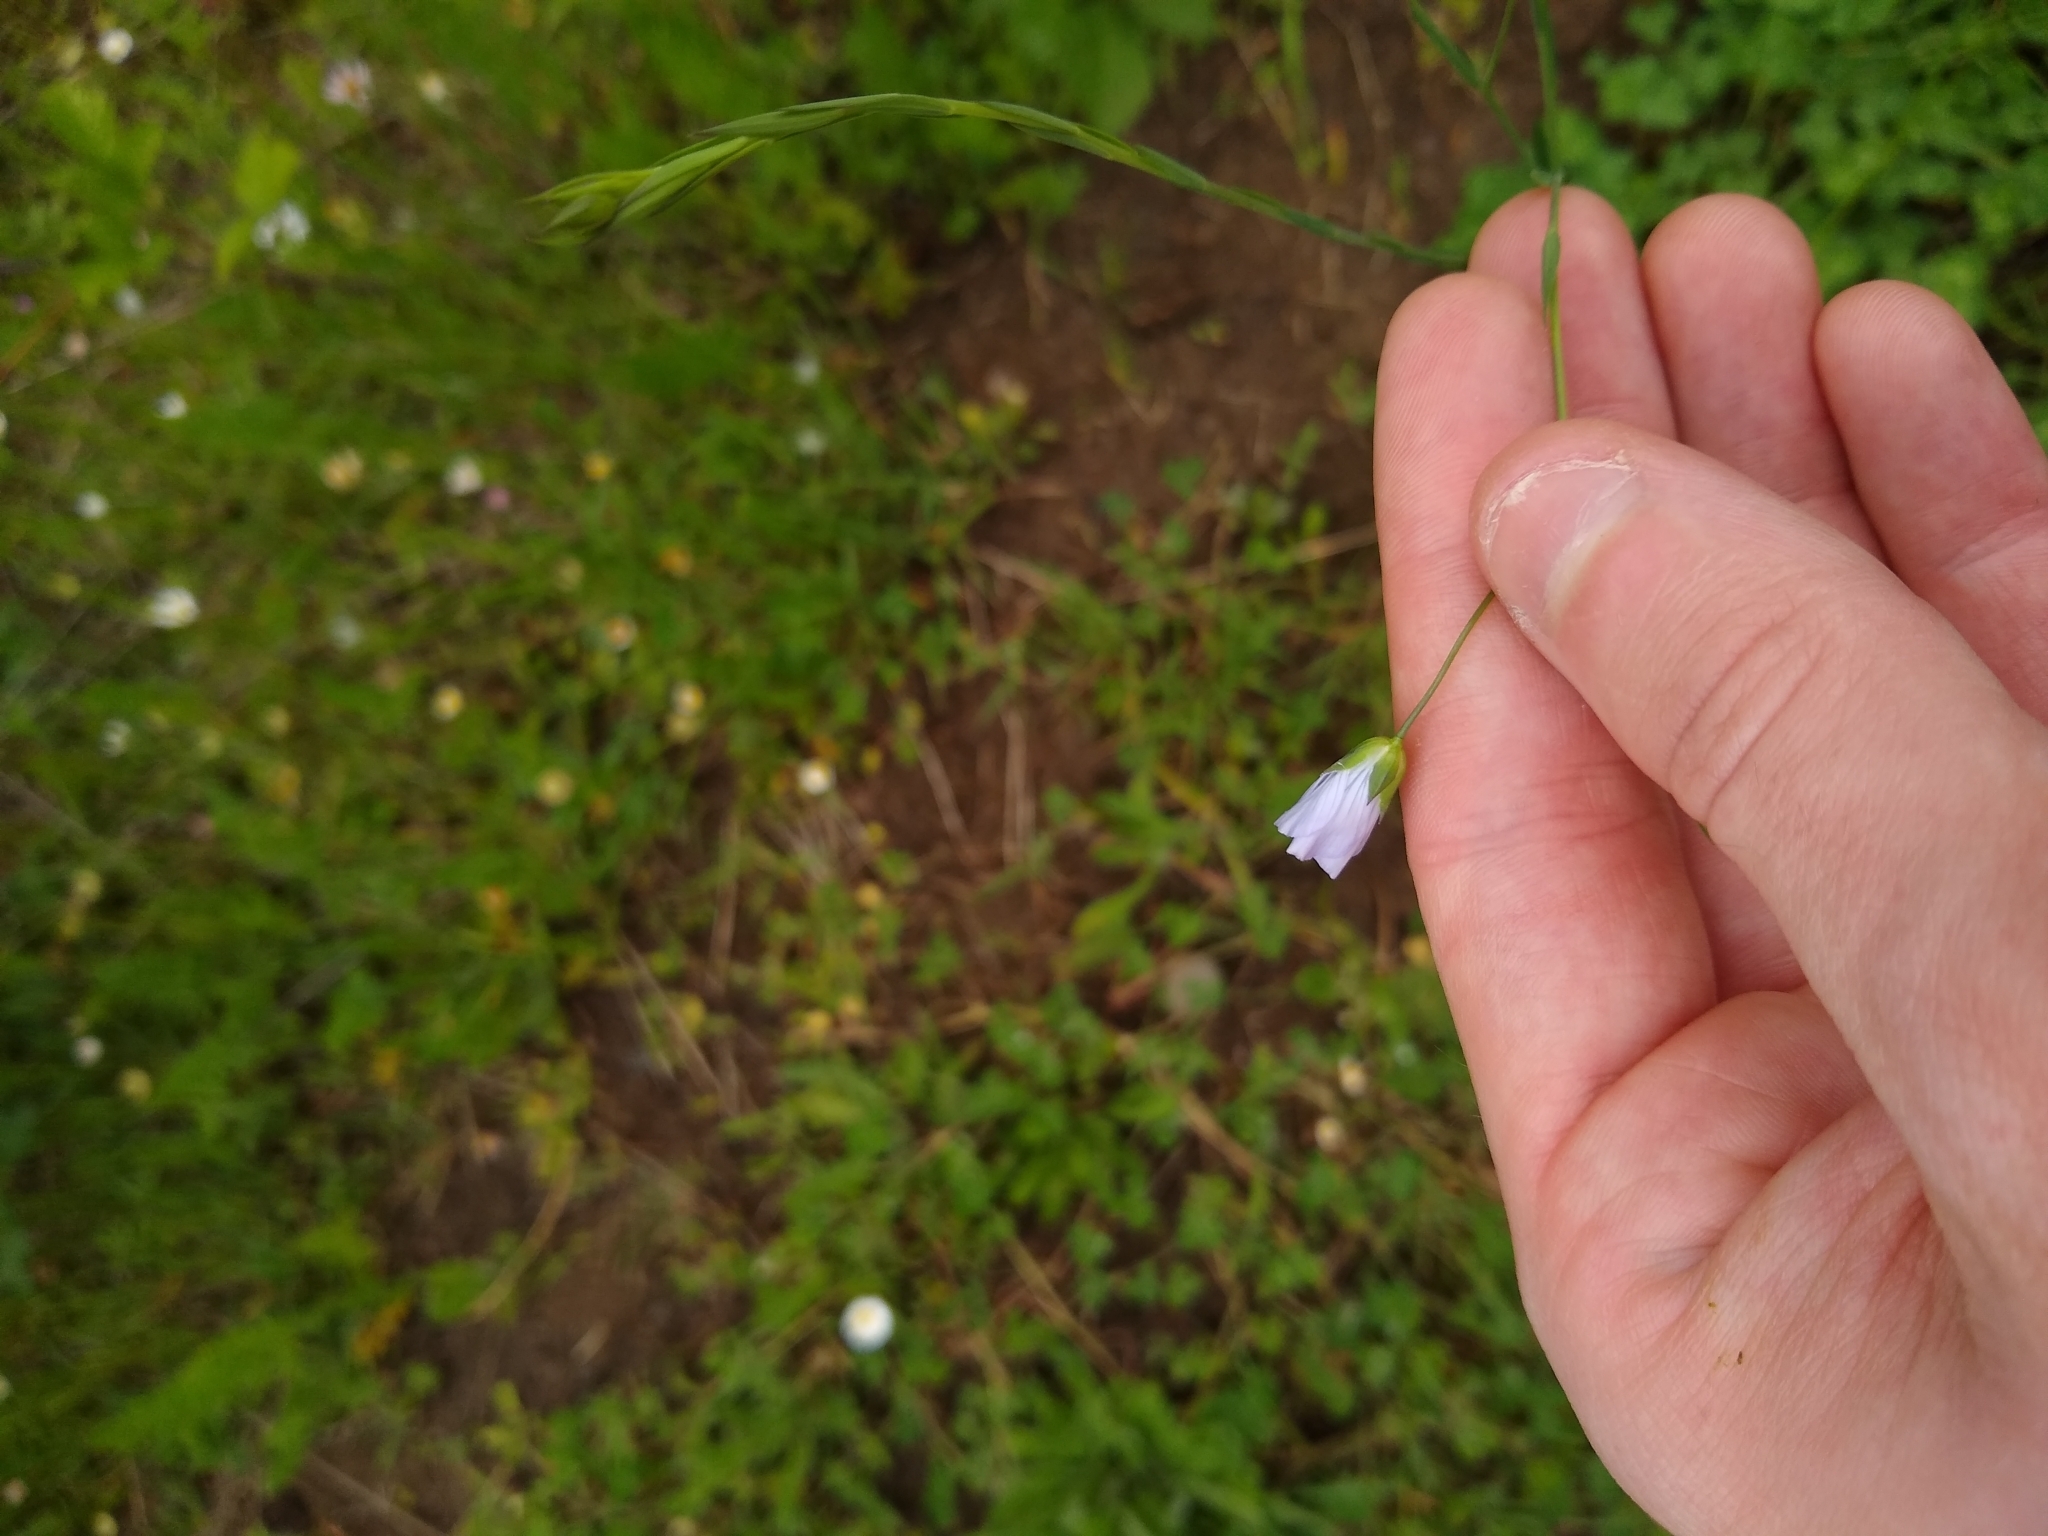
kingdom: Plantae
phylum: Tracheophyta
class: Magnoliopsida
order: Malpighiales
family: Linaceae
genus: Linum
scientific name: Linum bienne
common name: Pale flax
